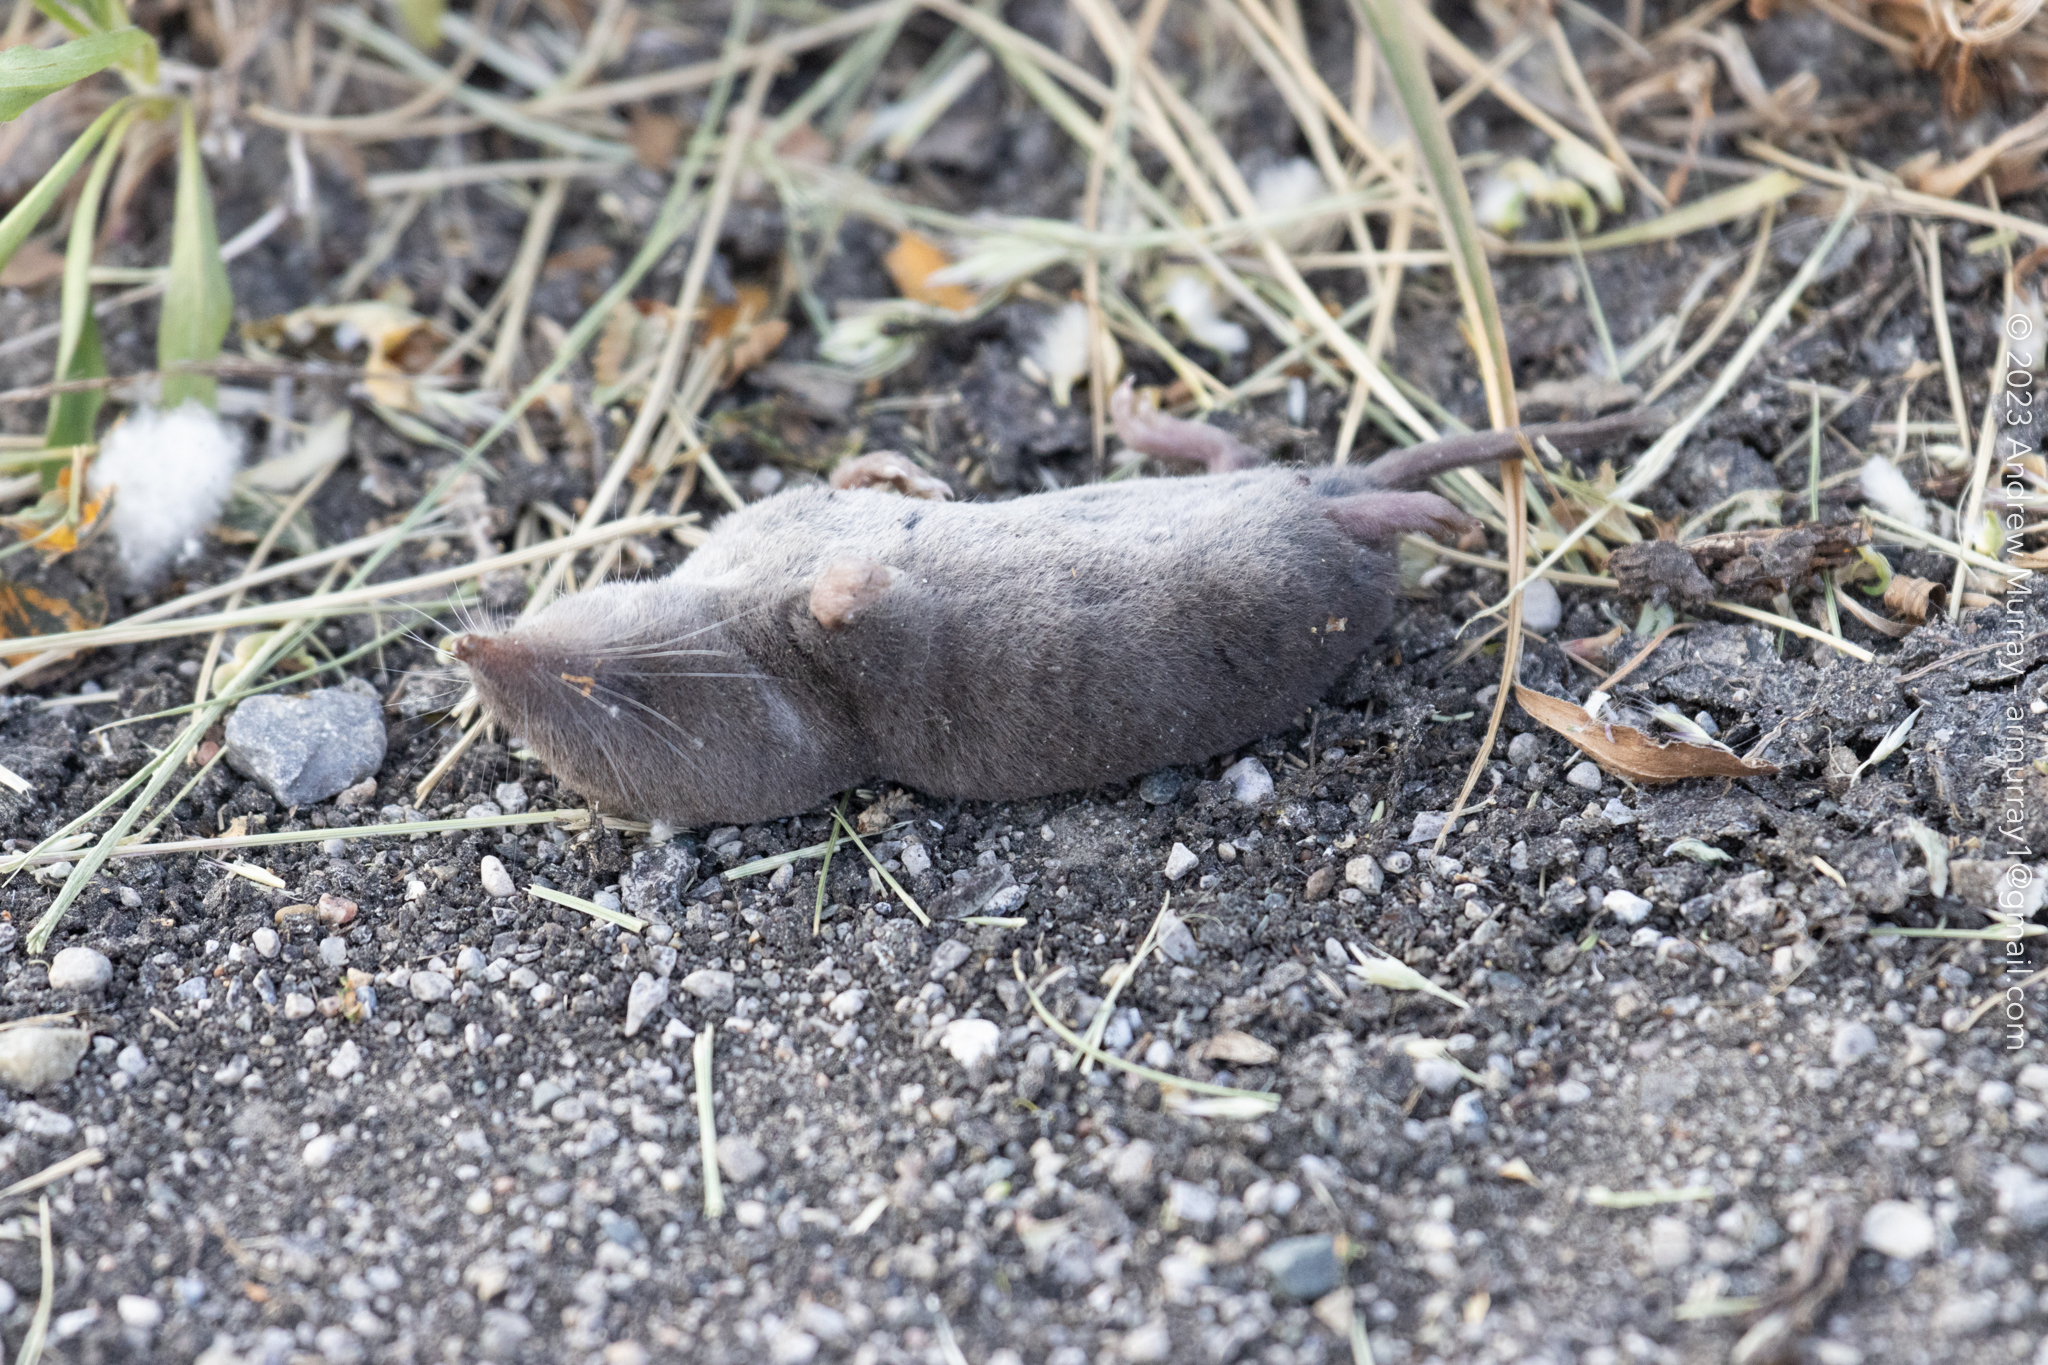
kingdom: Animalia
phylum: Chordata
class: Mammalia
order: Soricomorpha
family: Soricidae
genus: Blarina
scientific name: Blarina brevicauda
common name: Northern short-tailed shrew
